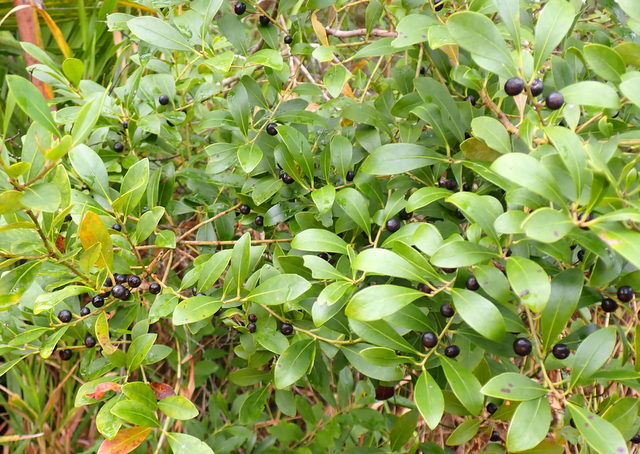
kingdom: Plantae
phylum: Tracheophyta
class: Magnoliopsida
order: Aquifoliales
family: Aquifoliaceae
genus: Ilex
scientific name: Ilex glabra
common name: Bitter gallberry
